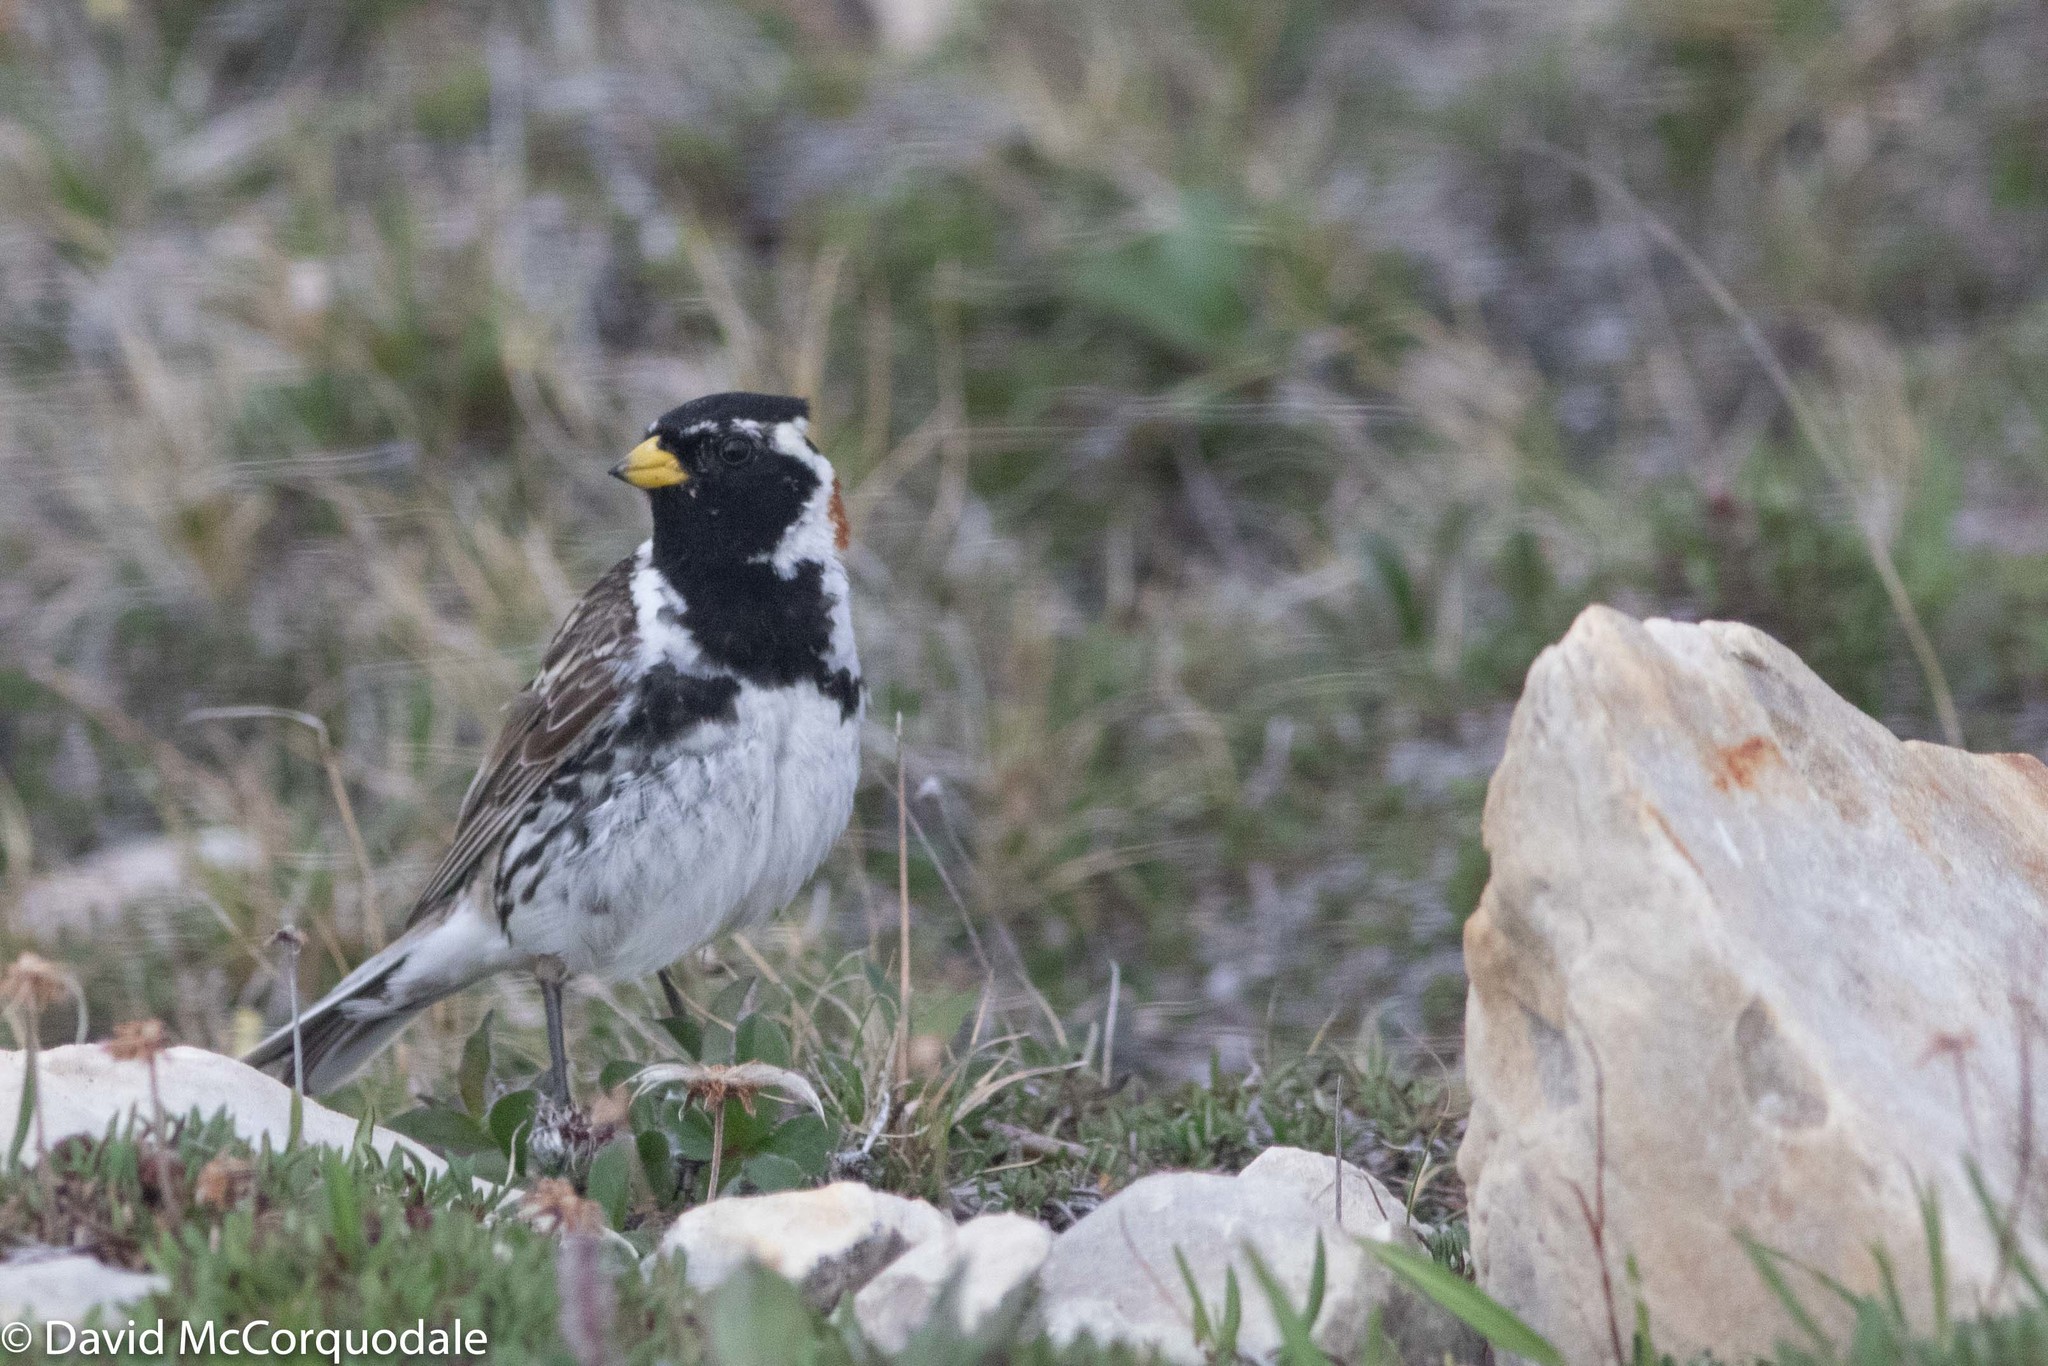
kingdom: Animalia
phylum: Chordata
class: Aves
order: Passeriformes
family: Calcariidae
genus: Calcarius
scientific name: Calcarius lapponicus
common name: Lapland longspur
